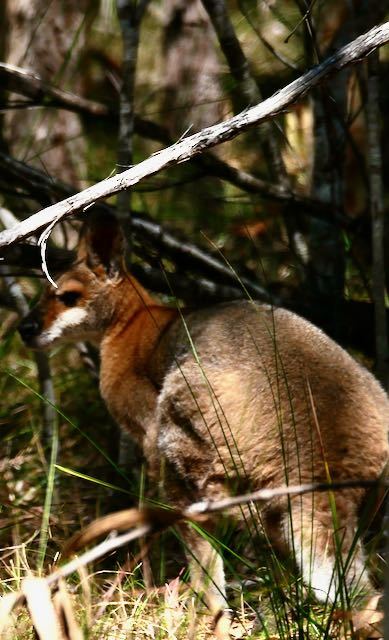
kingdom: Animalia
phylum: Chordata
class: Mammalia
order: Diprotodontia
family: Macropodidae
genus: Notamacropus
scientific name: Notamacropus rufogriseus
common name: Red-necked wallaby
